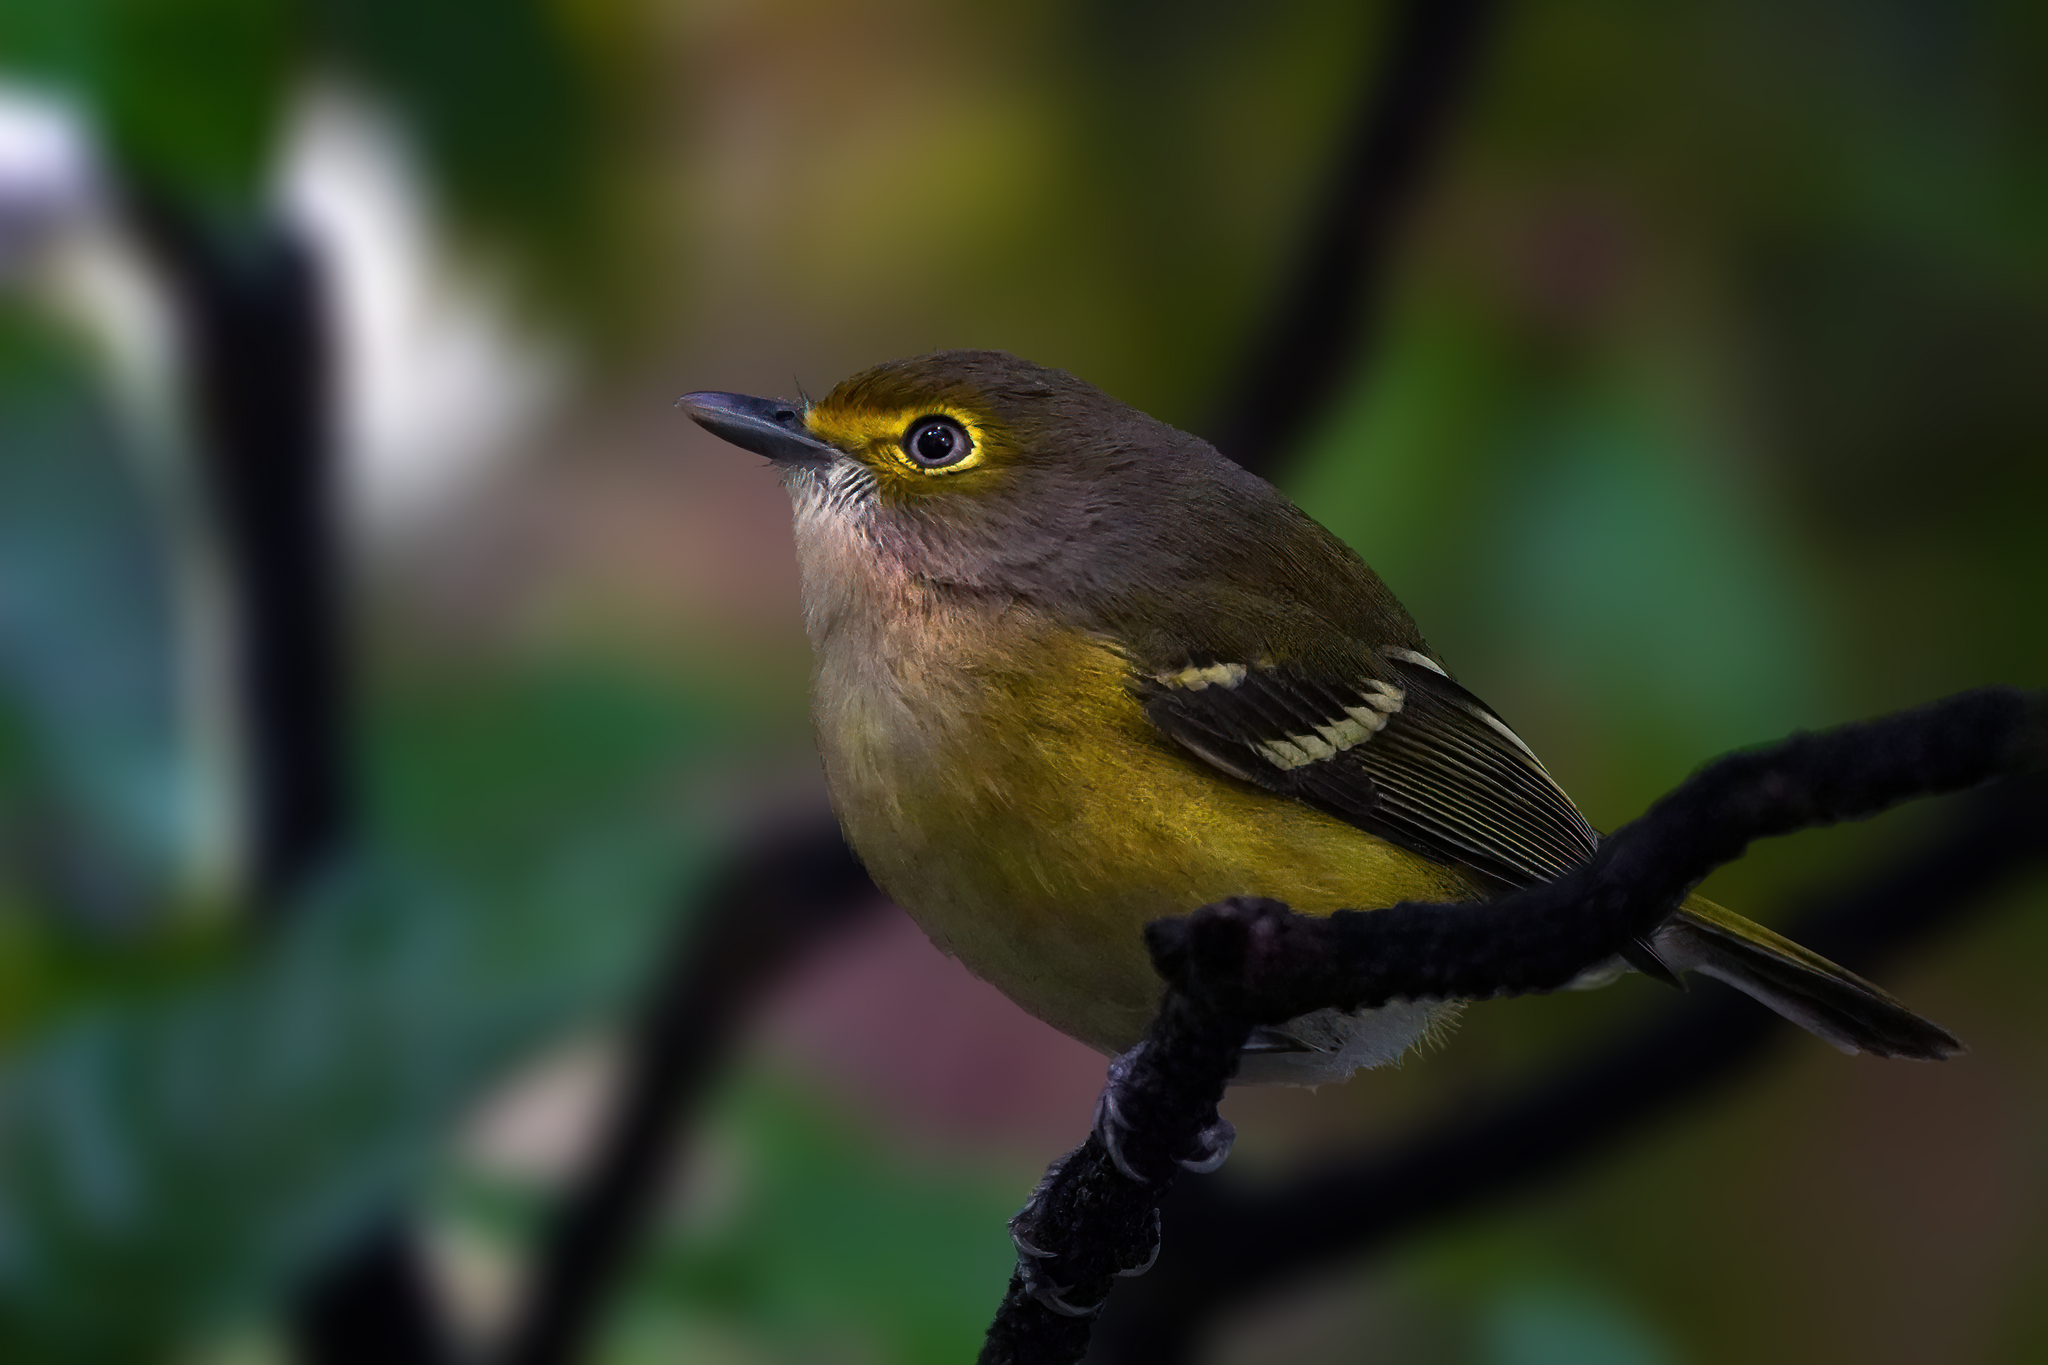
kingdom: Animalia
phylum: Chordata
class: Aves
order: Passeriformes
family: Vireonidae
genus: Vireo
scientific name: Vireo griseus
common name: White-eyed vireo
